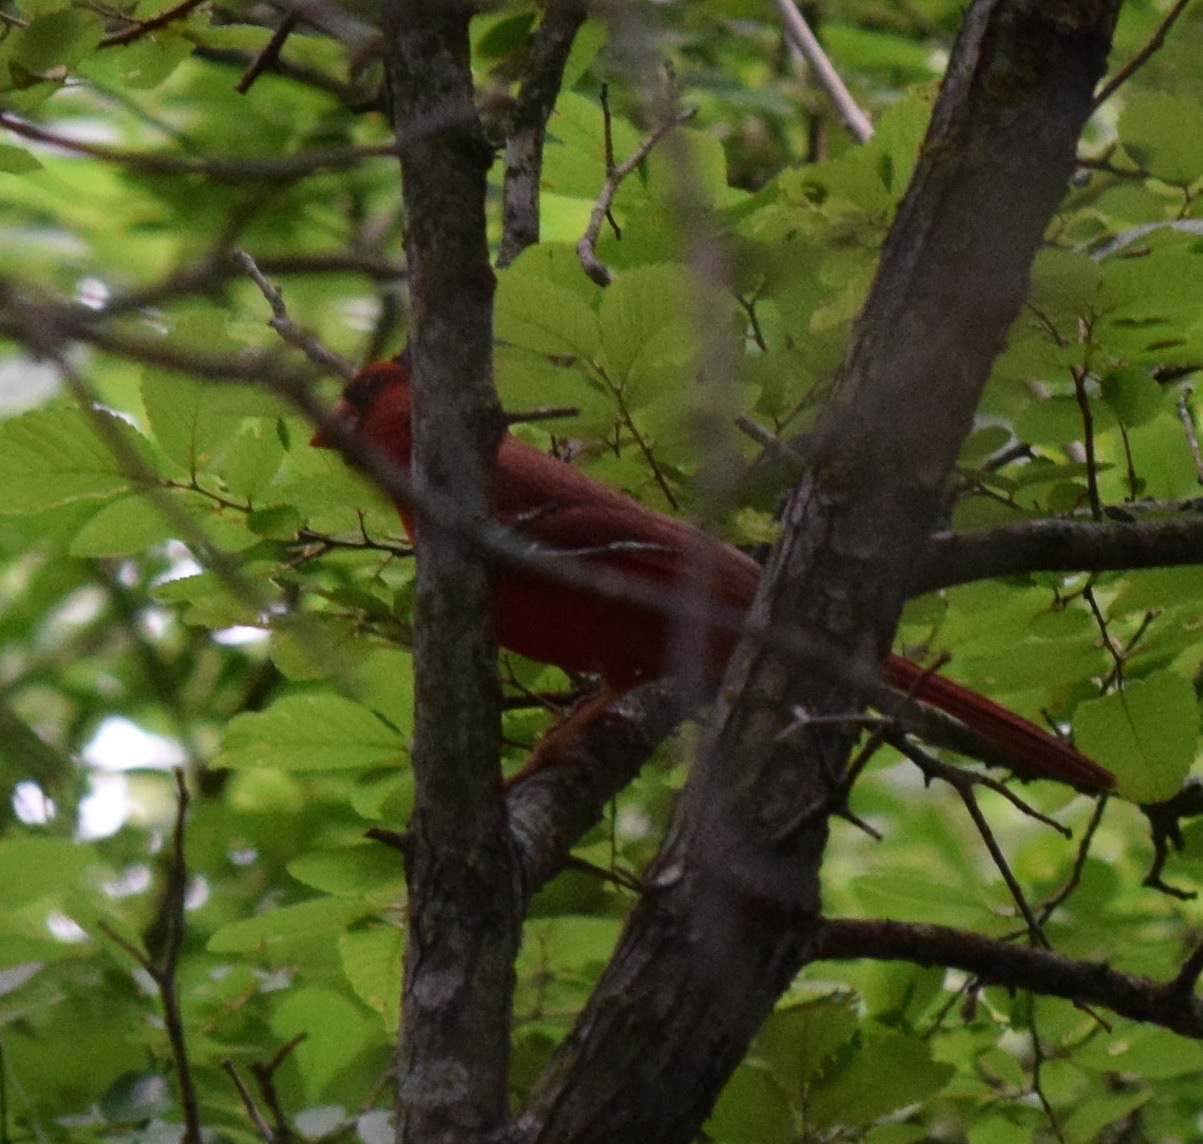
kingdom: Animalia
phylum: Chordata
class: Aves
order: Passeriformes
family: Cardinalidae
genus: Cardinalis
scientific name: Cardinalis cardinalis
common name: Northern cardinal
